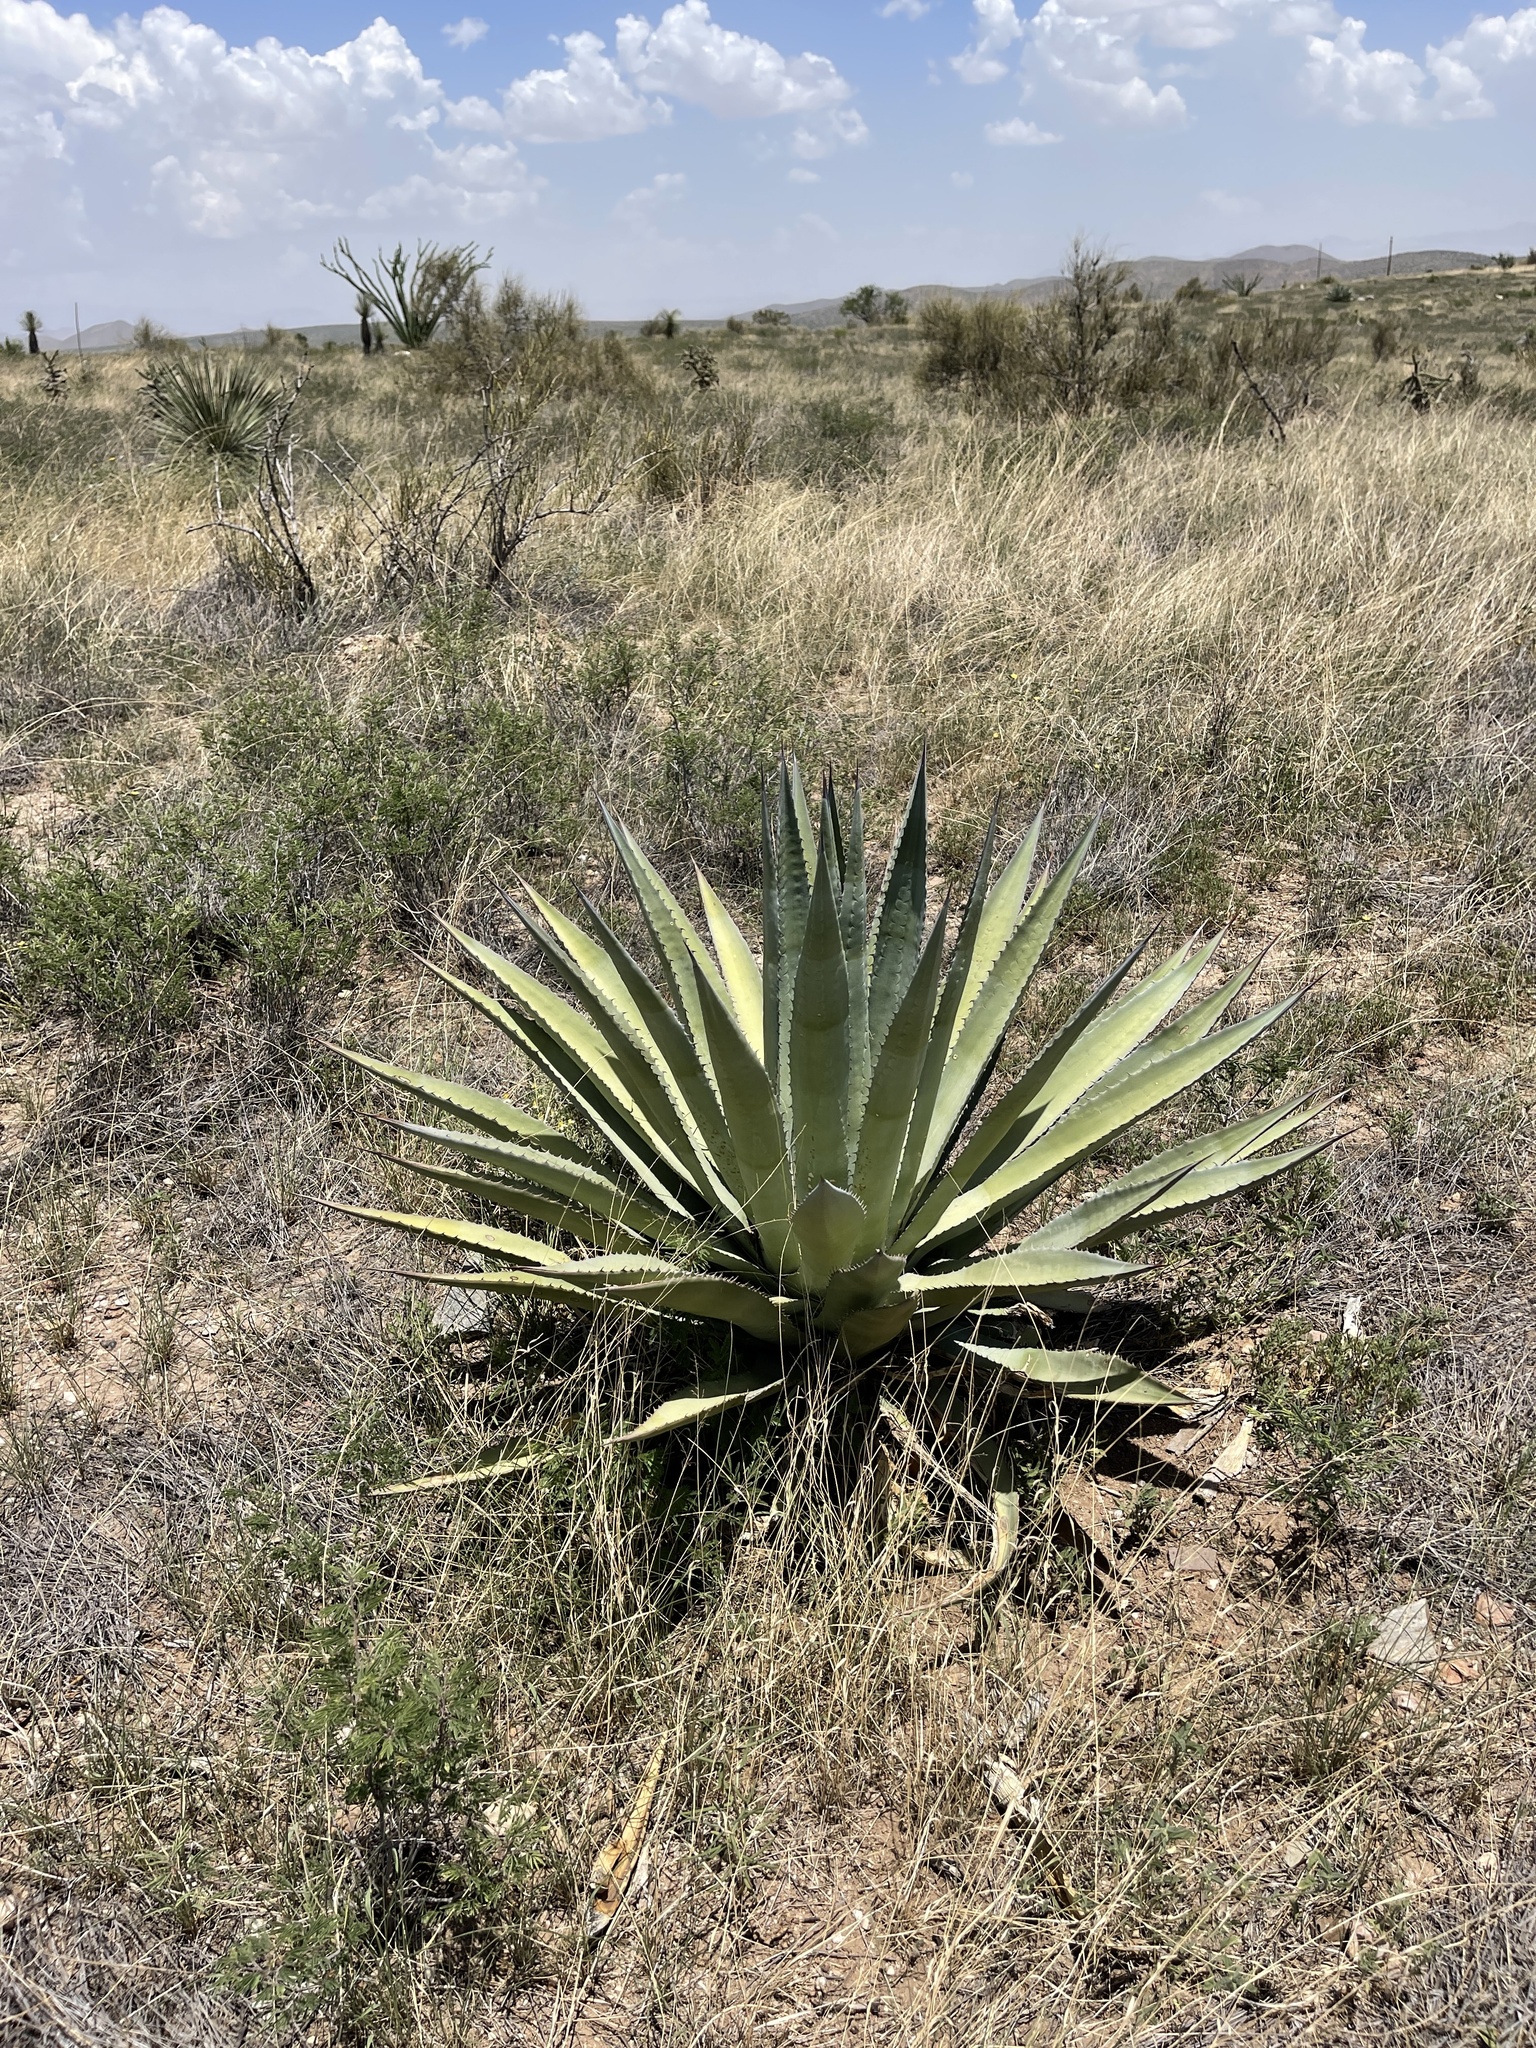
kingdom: Plantae
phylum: Tracheophyta
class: Liliopsida
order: Asparagales
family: Asparagaceae
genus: Agave
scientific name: Agave palmeri
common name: Palmer agave
